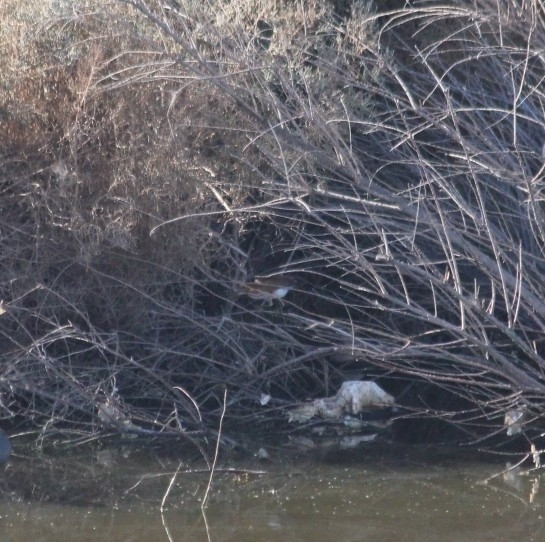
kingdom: Animalia
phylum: Chordata
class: Aves
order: Pelecaniformes
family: Ardeidae
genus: Ixobrychus
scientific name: Ixobrychus exilis
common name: Least bittern
